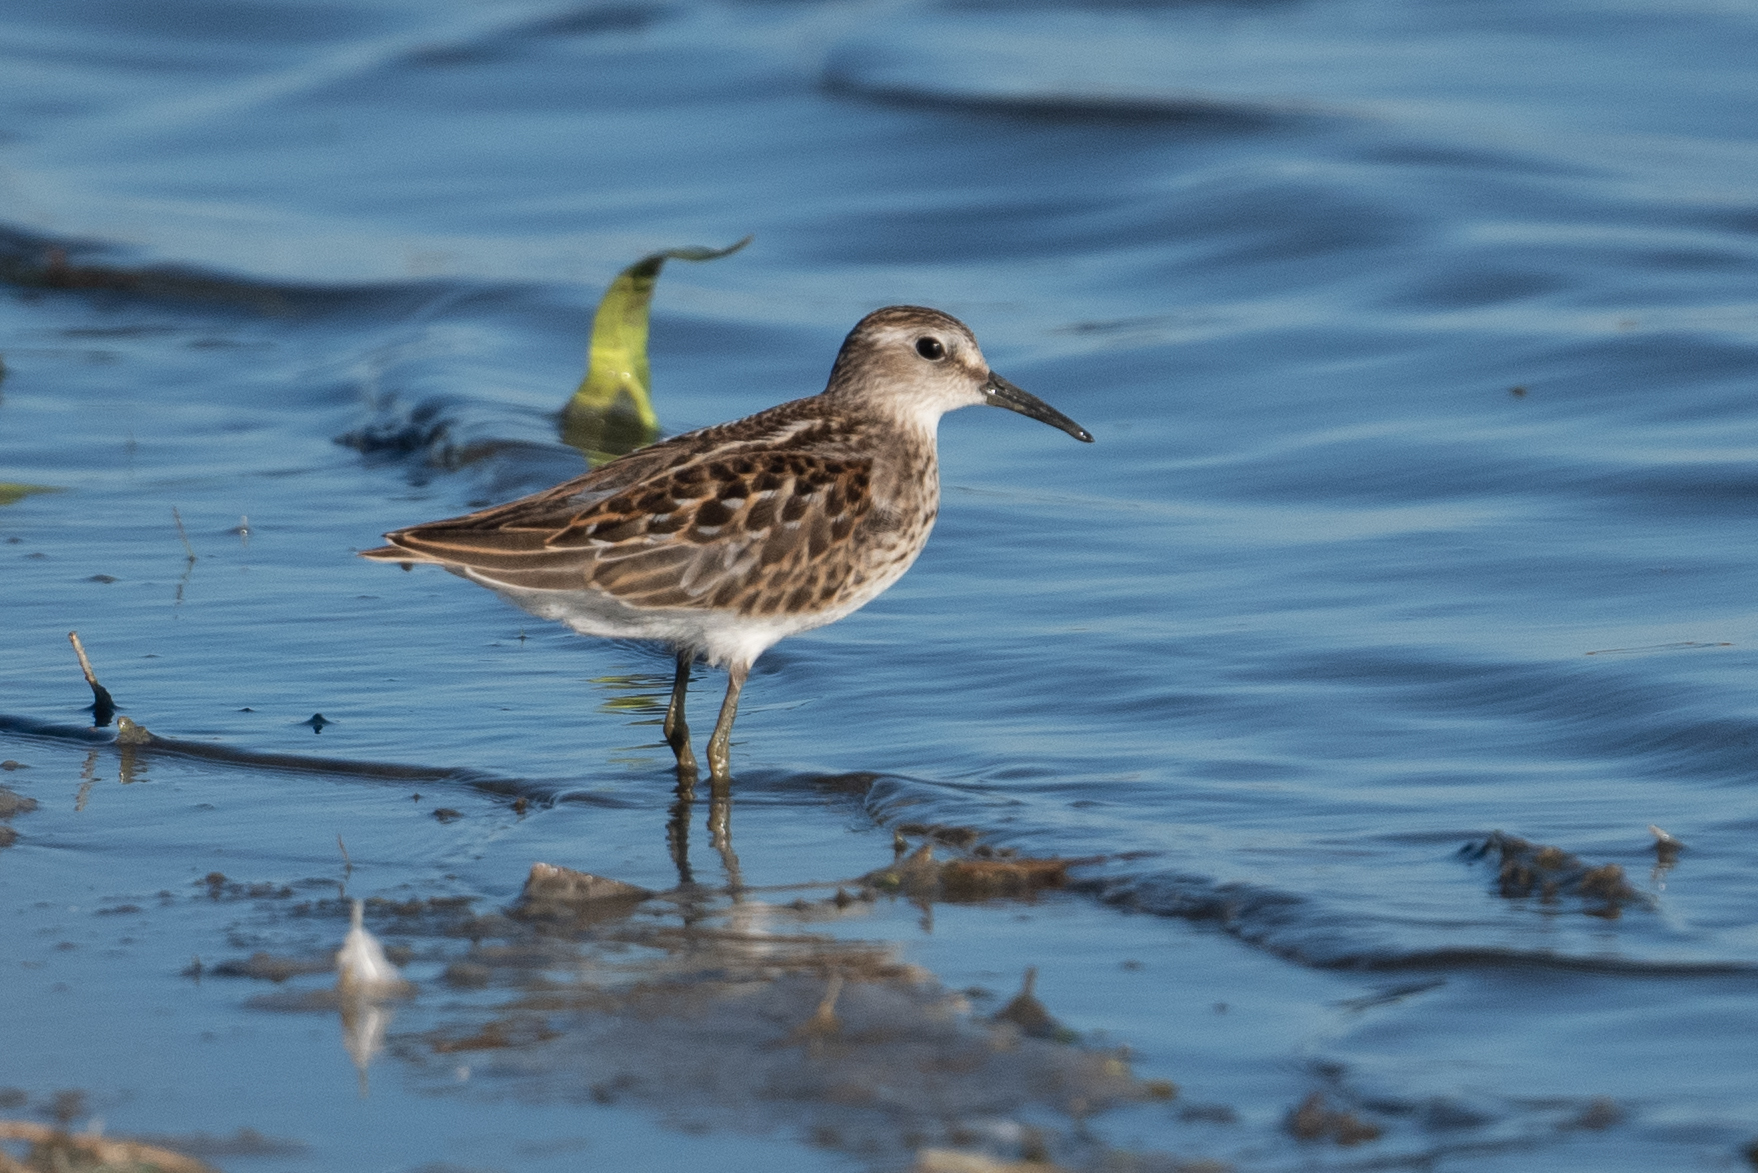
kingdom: Animalia
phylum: Chordata
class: Aves
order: Charadriiformes
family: Scolopacidae
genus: Calidris
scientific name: Calidris minutilla
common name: Least sandpiper
